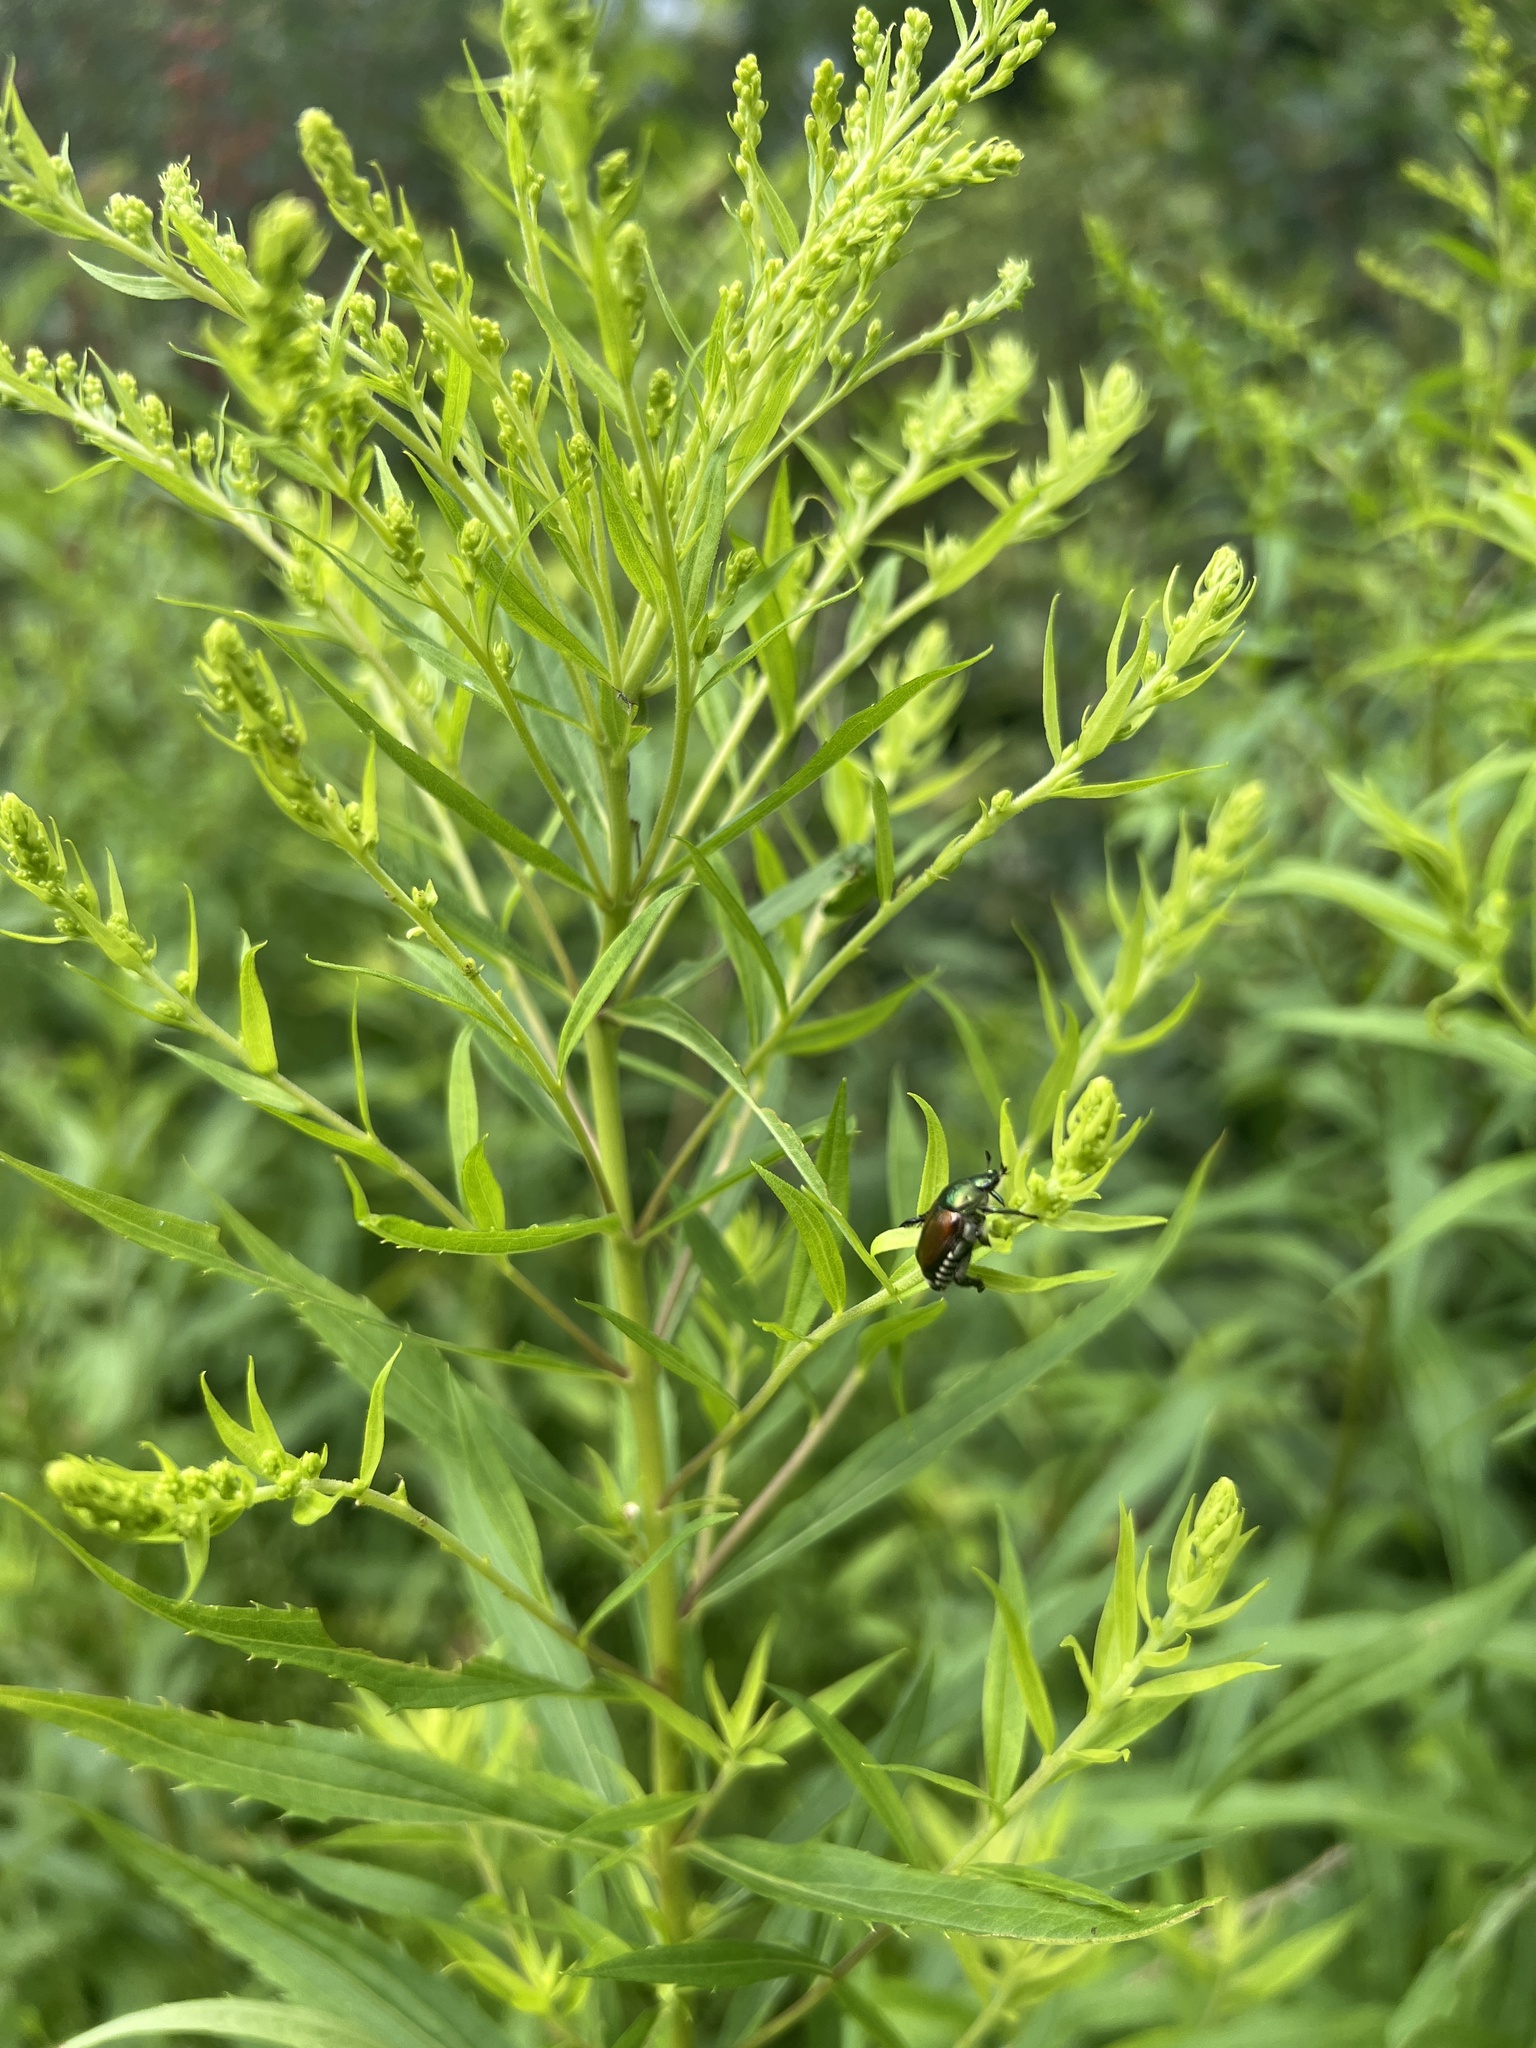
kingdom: Animalia
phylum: Arthropoda
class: Insecta
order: Coleoptera
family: Scarabaeidae
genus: Popillia
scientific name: Popillia japonica
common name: Japanese beetle
